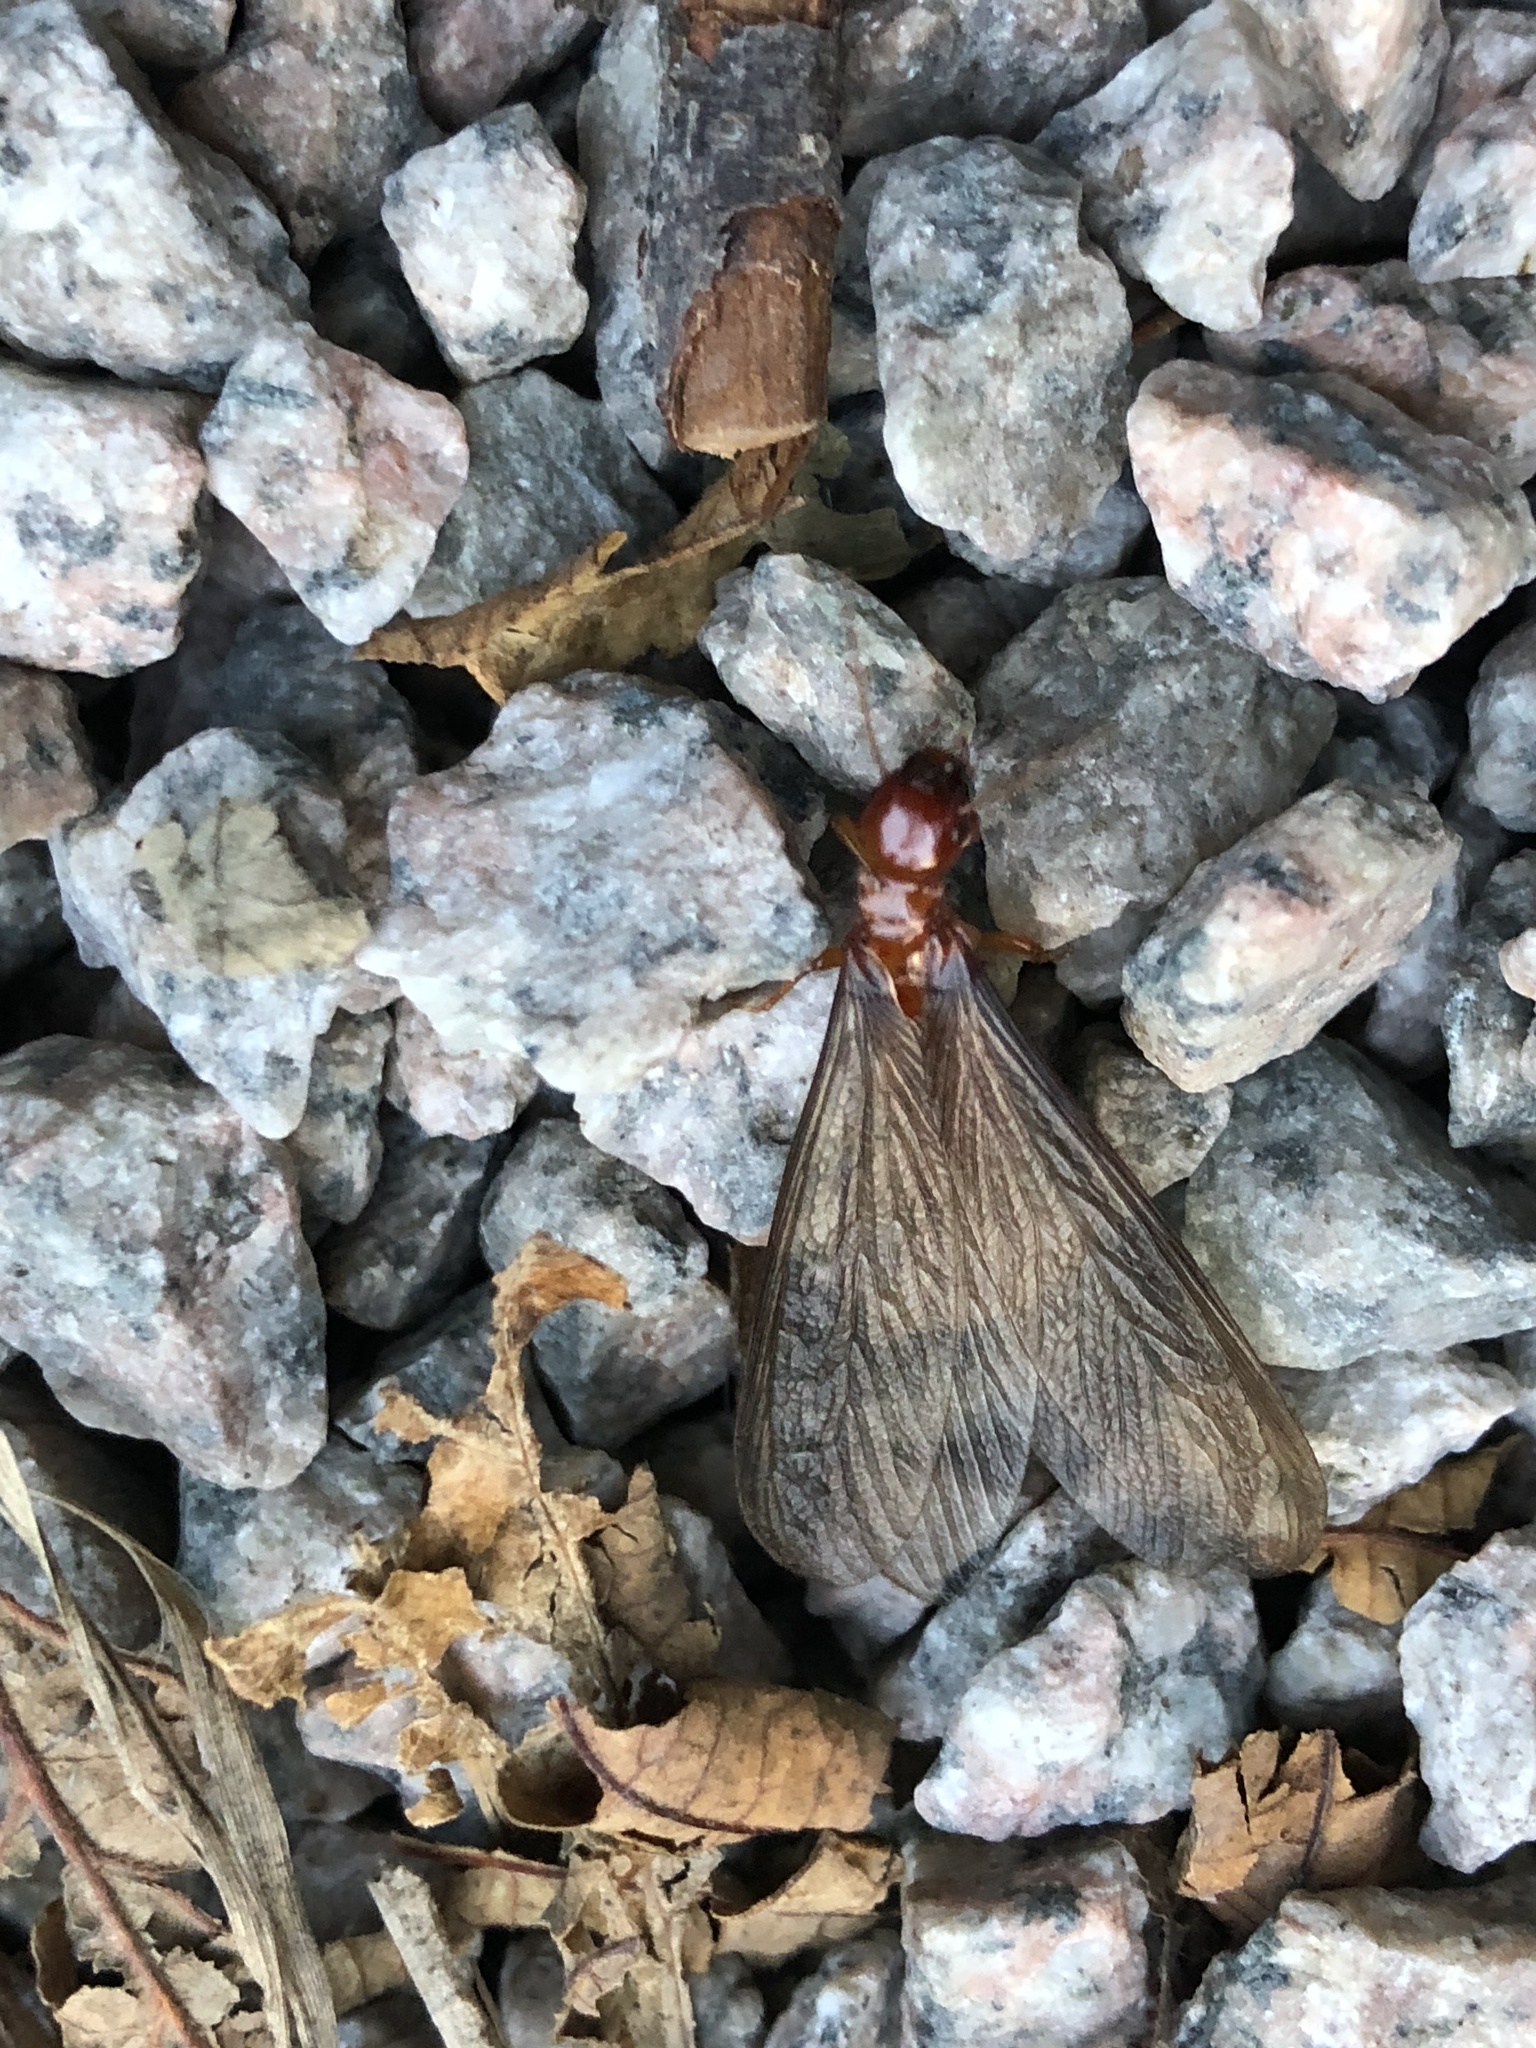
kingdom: Animalia
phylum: Arthropoda
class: Insecta
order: Blattodea
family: Archotermopsidae
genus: Zootermopsis
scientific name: Zootermopsis angusticollis
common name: Rottenwood termite
